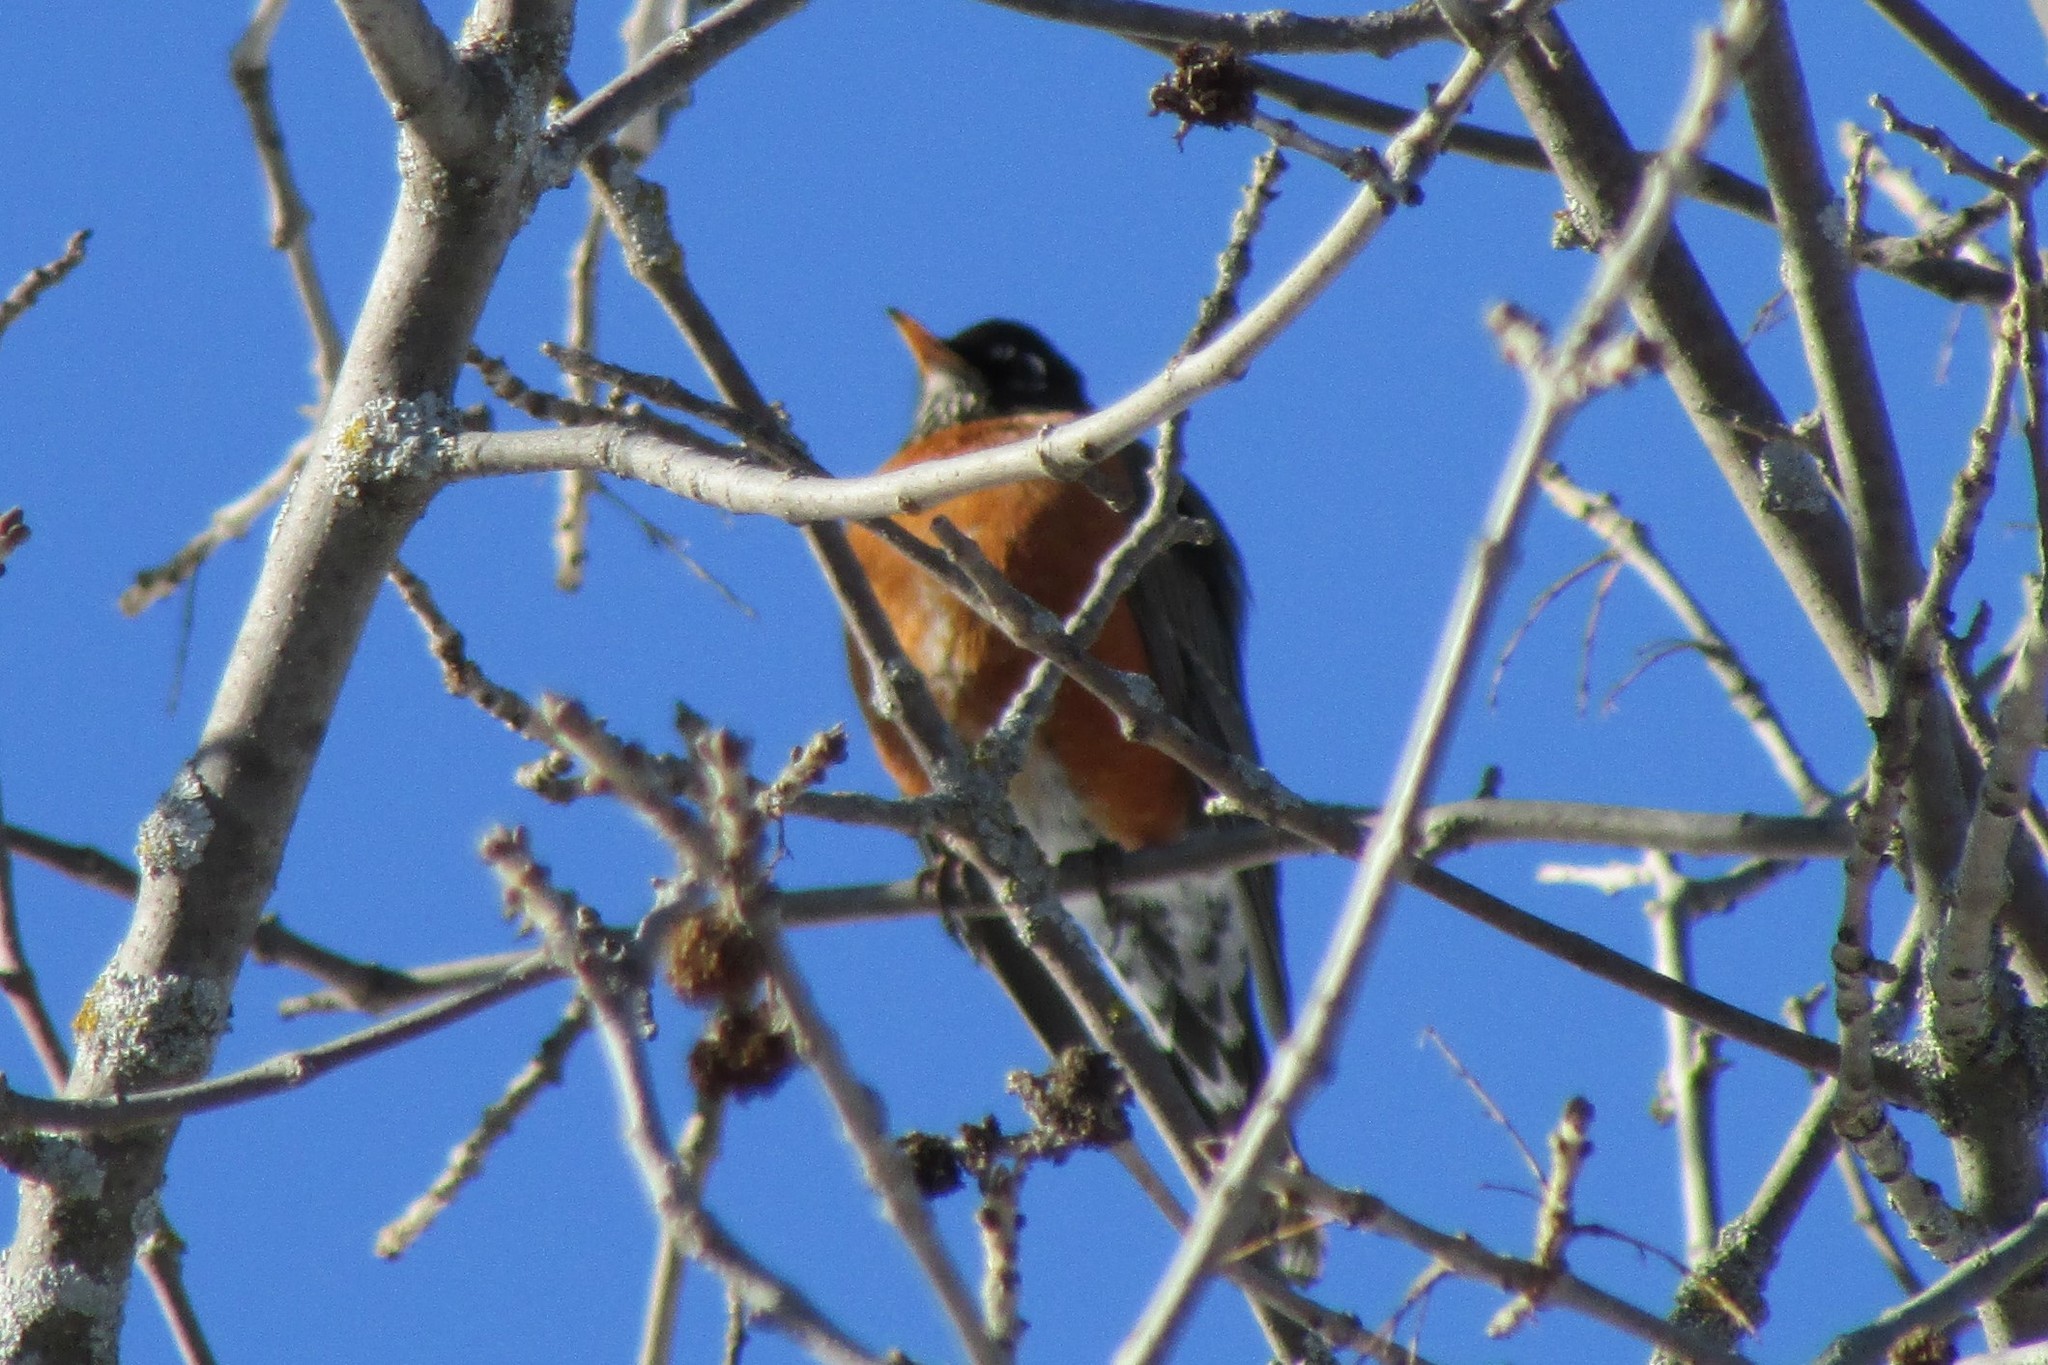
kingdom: Animalia
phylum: Chordata
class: Aves
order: Passeriformes
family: Turdidae
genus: Turdus
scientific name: Turdus migratorius
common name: American robin
